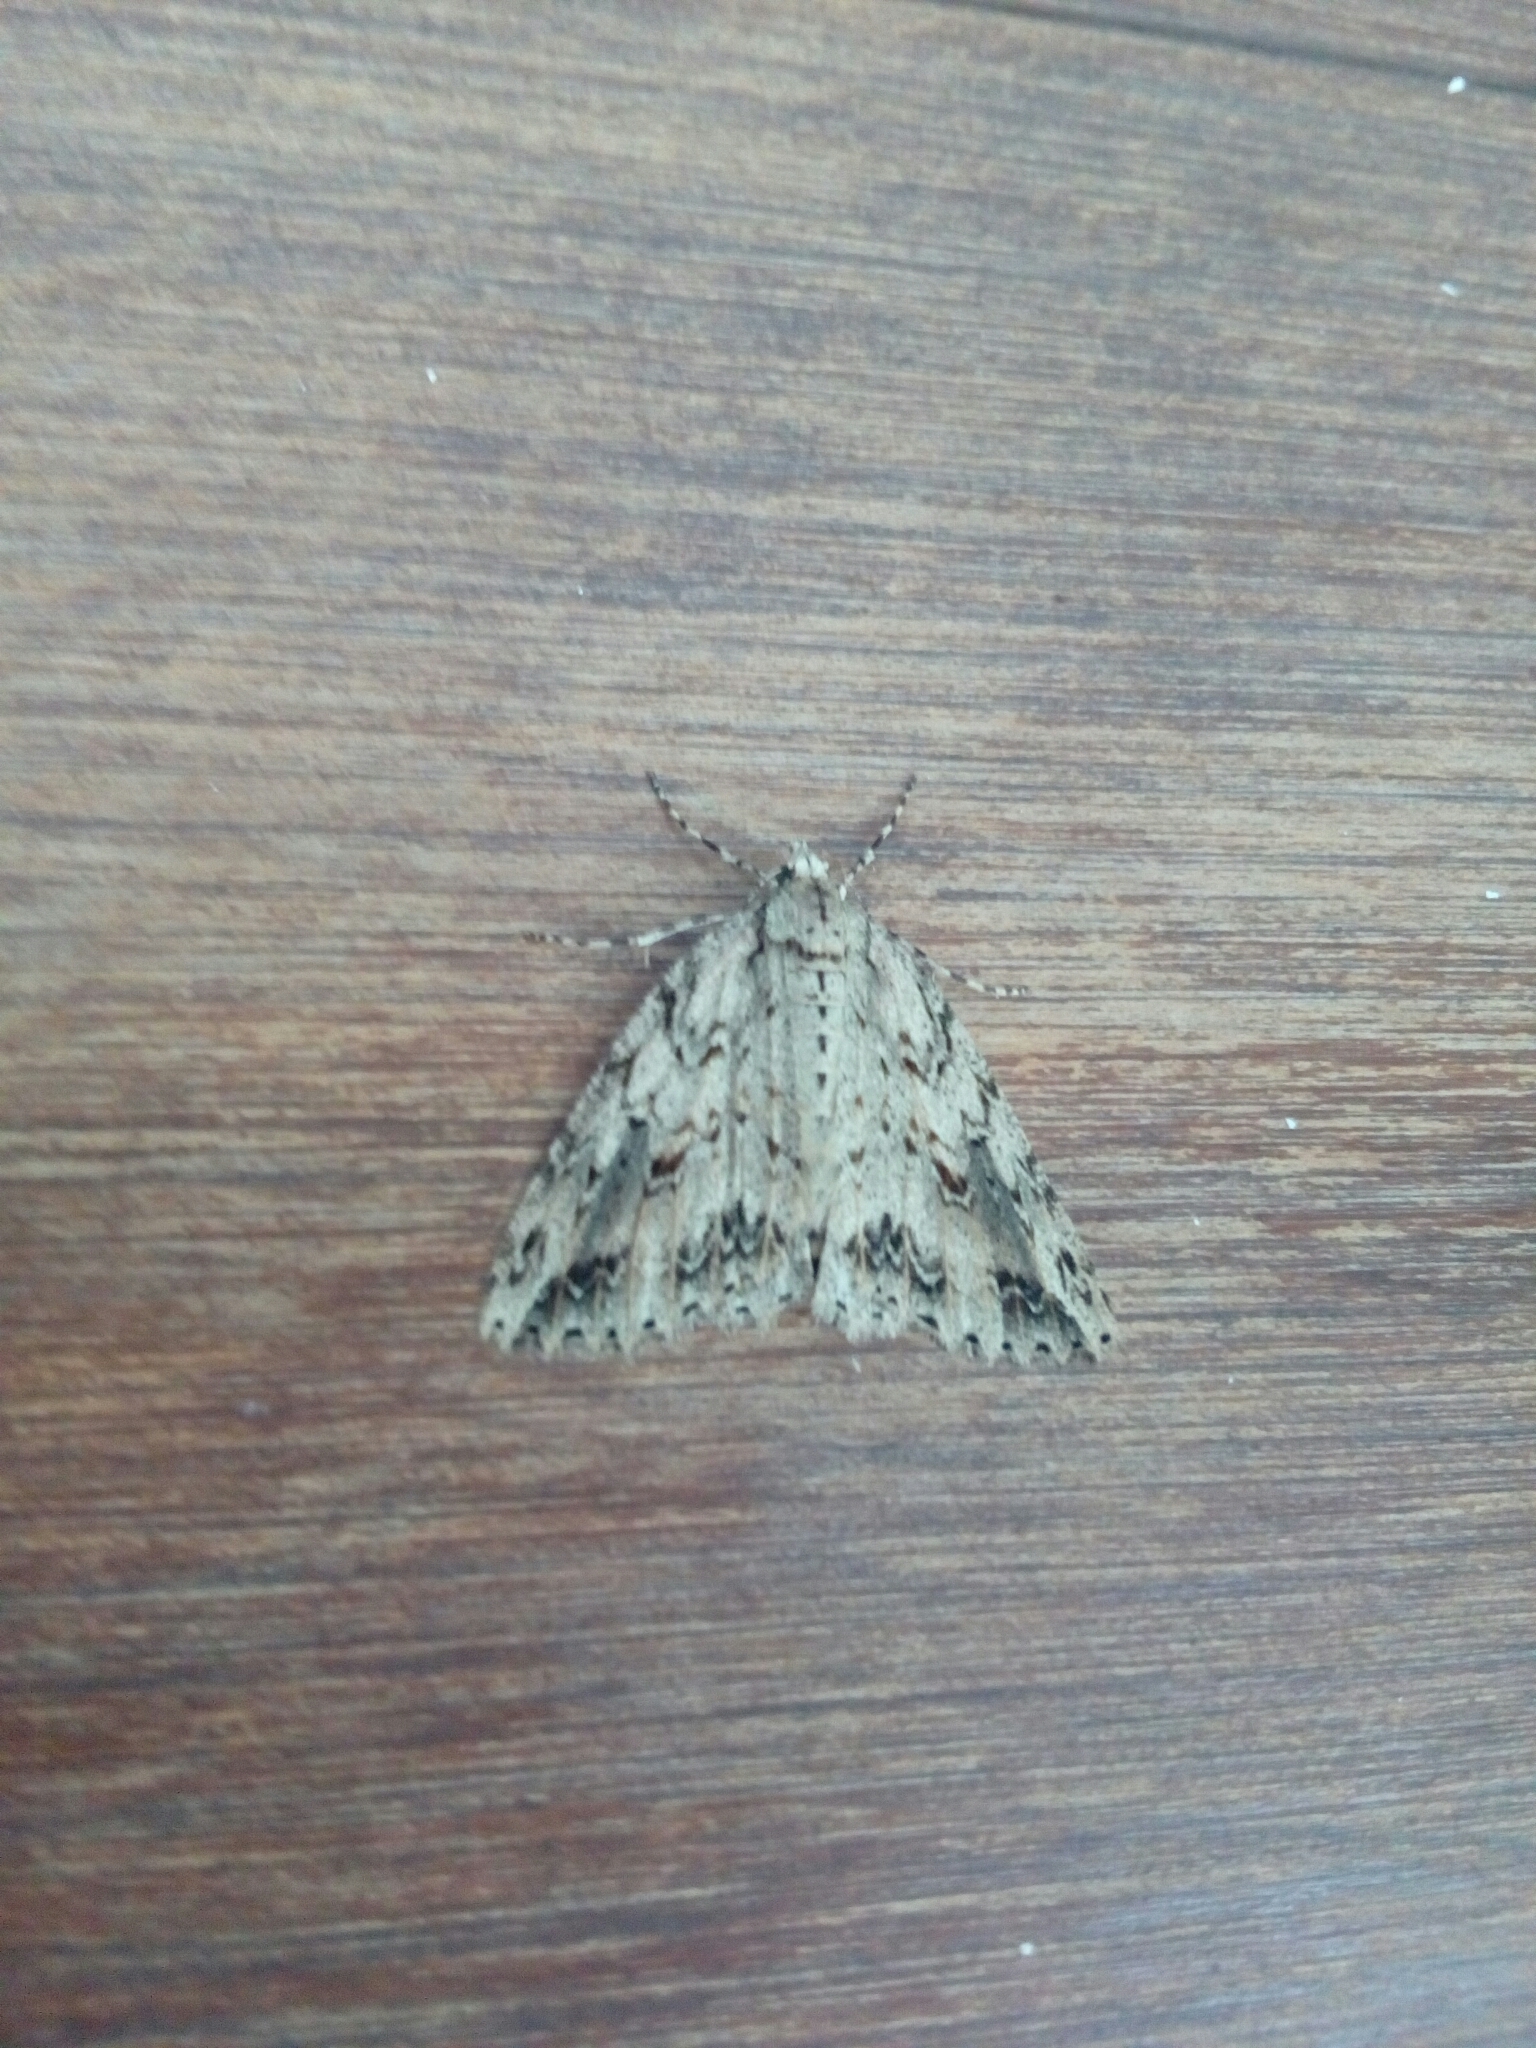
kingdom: Animalia
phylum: Arthropoda
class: Insecta
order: Lepidoptera
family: Geometridae
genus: Pseudocoremia
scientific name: Pseudocoremia rudisata
